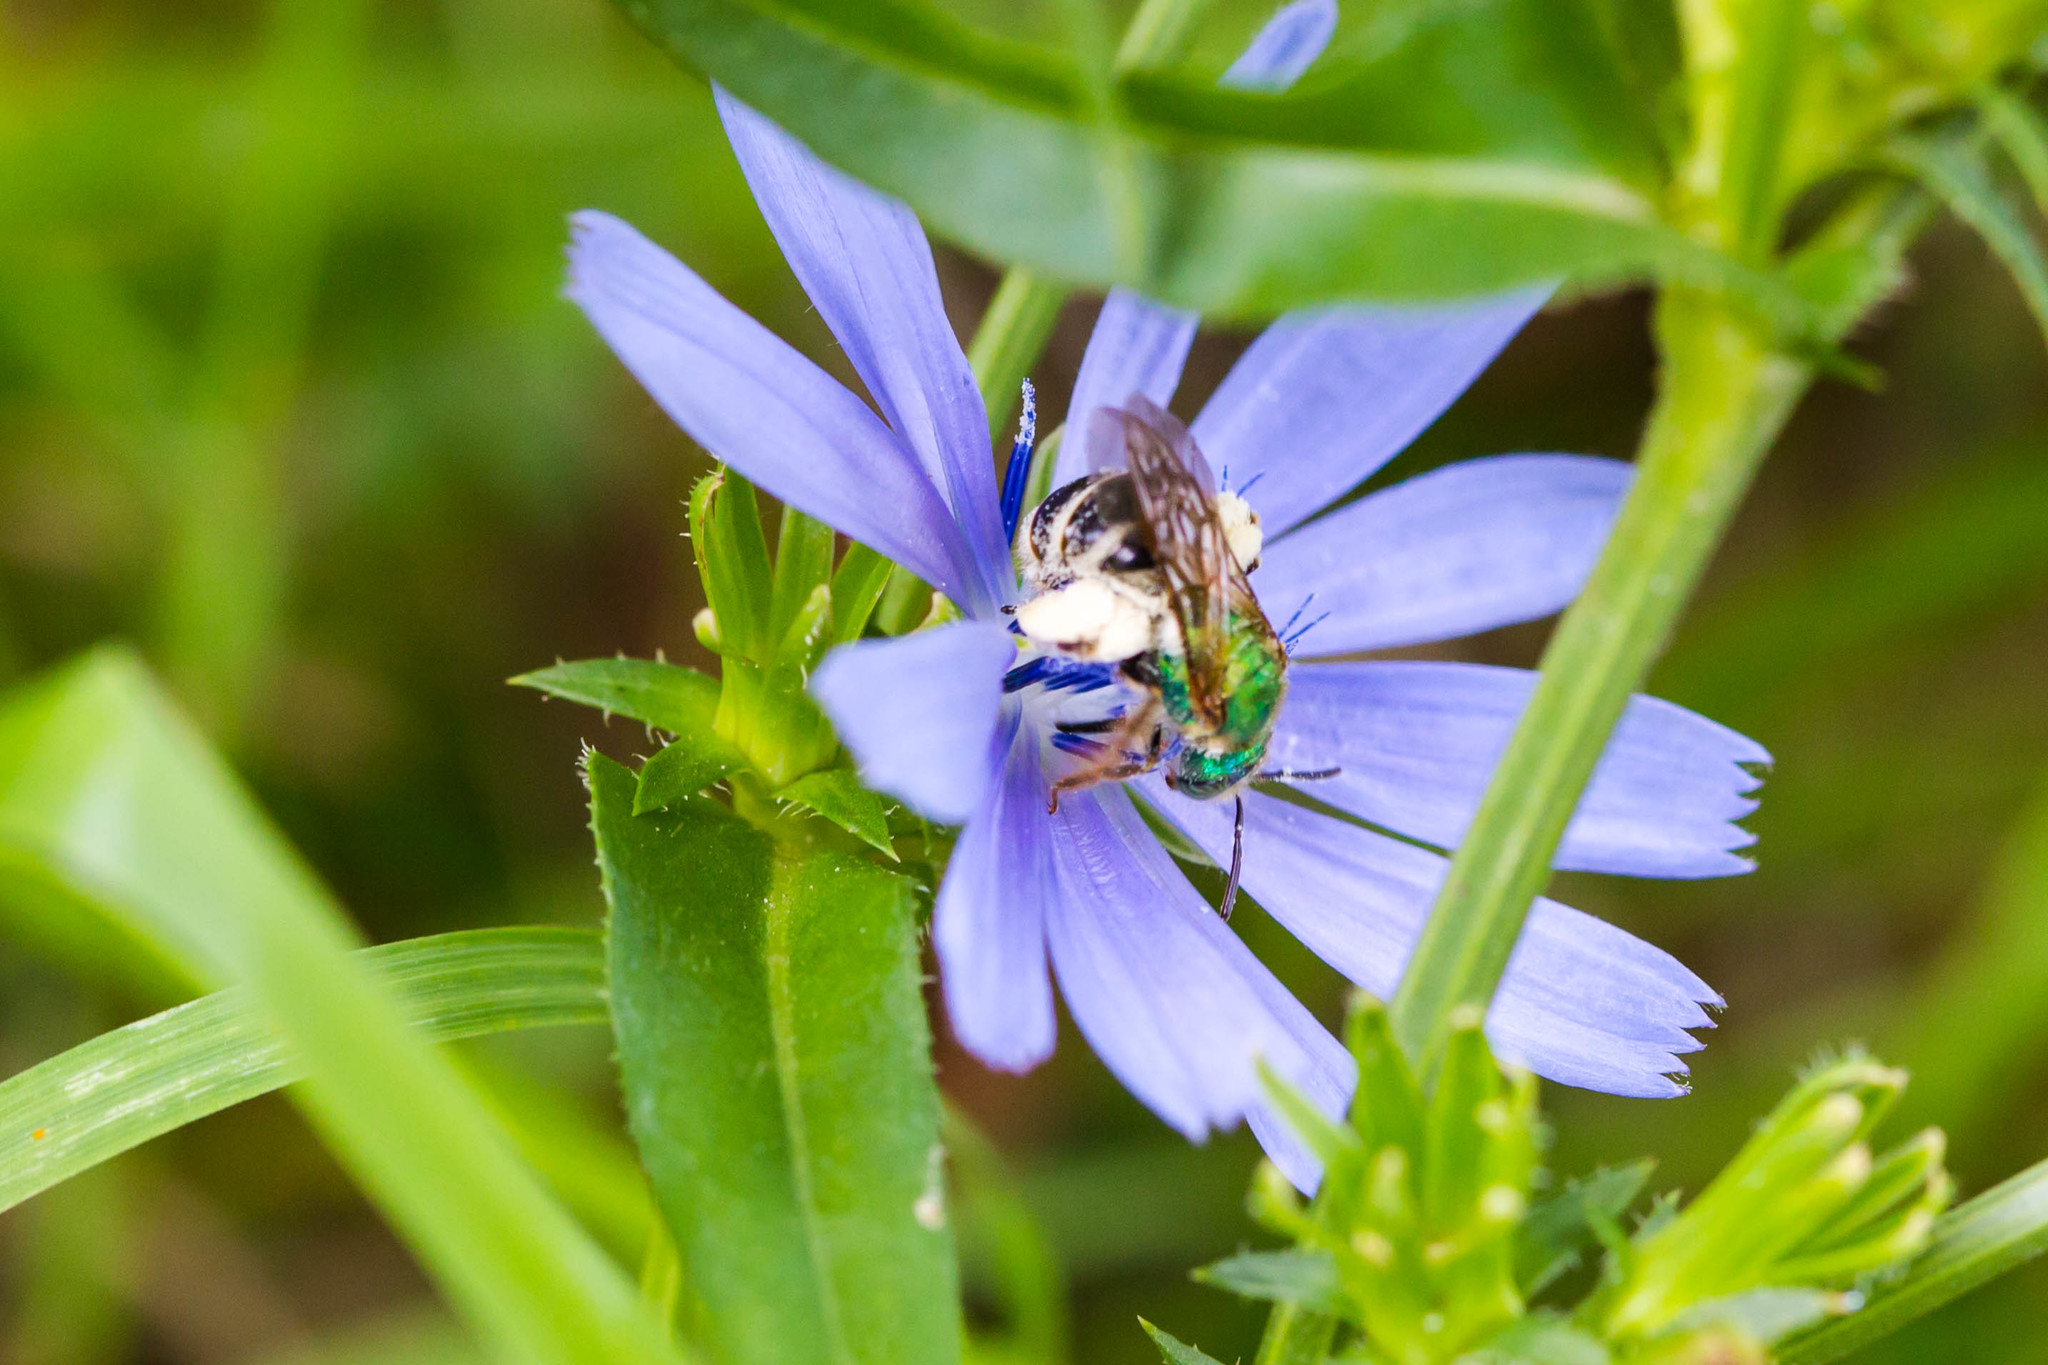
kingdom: Animalia
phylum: Arthropoda
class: Insecta
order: Hymenoptera
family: Halictidae
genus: Agapostemon
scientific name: Agapostemon virescens
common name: Bicolored striped sweat bee
